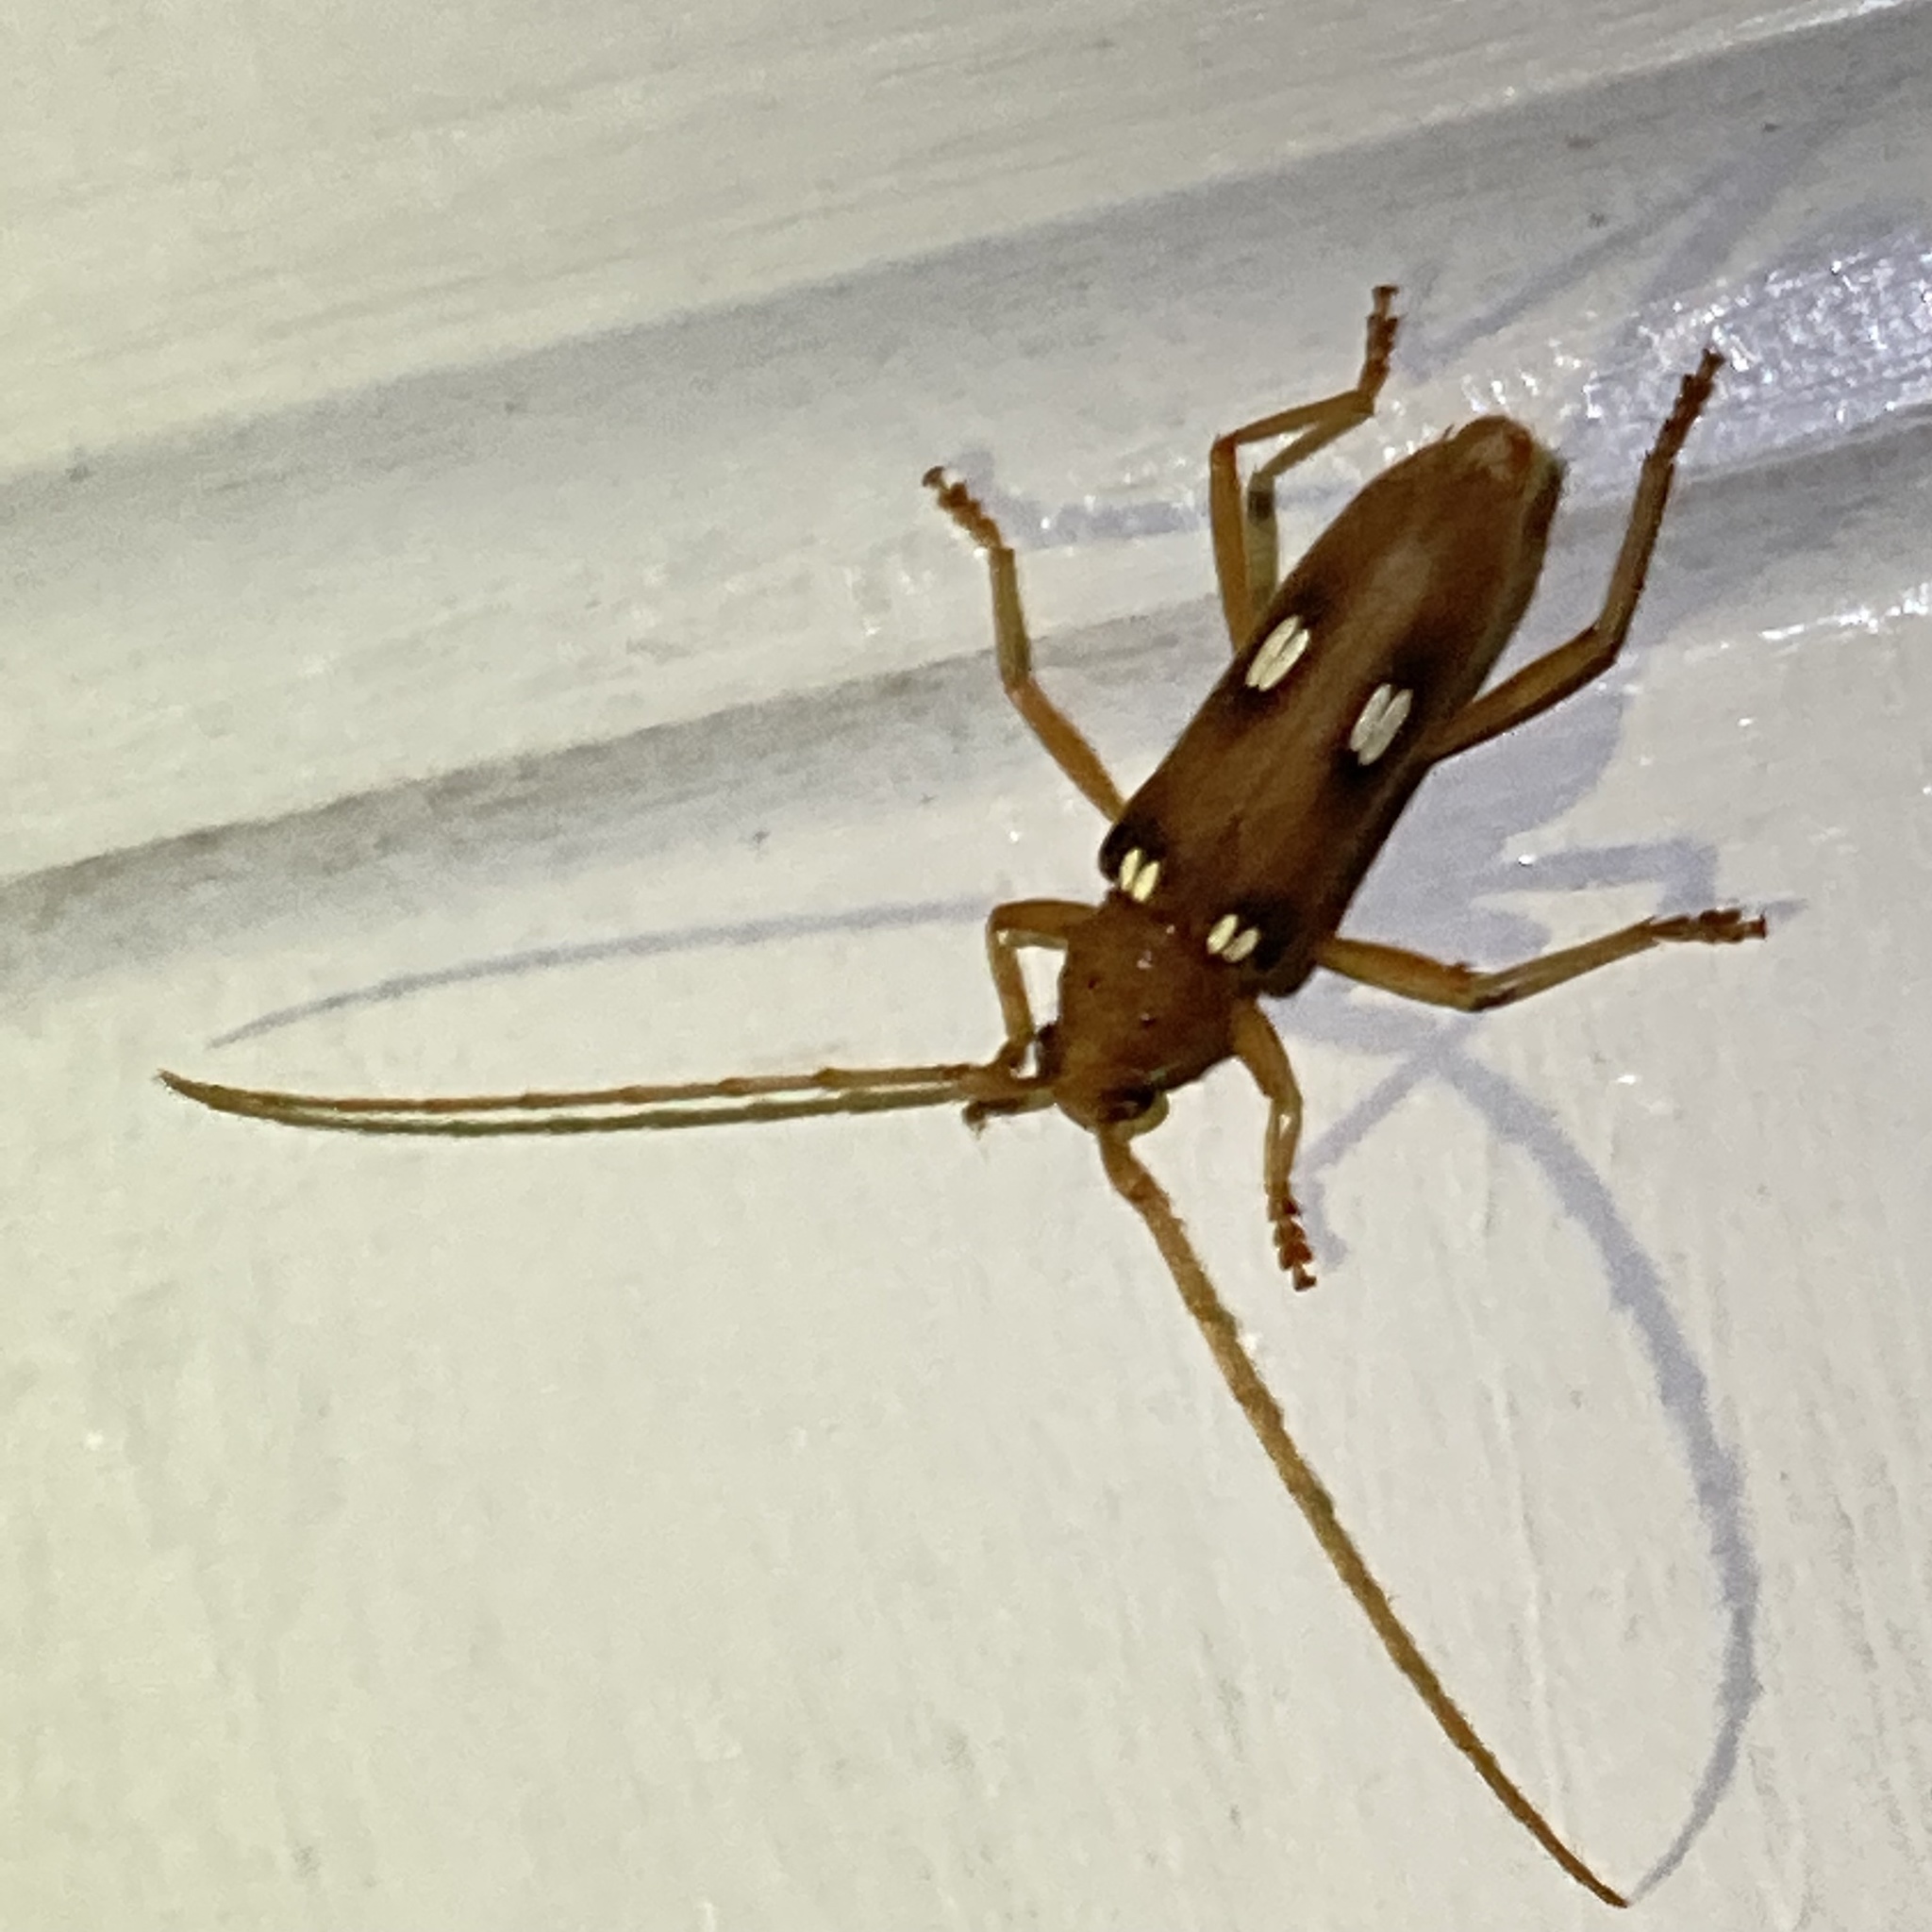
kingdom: Animalia
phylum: Arthropoda
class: Insecta
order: Coleoptera
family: Cerambycidae
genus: Eburia
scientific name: Eburia quadrigeminata
